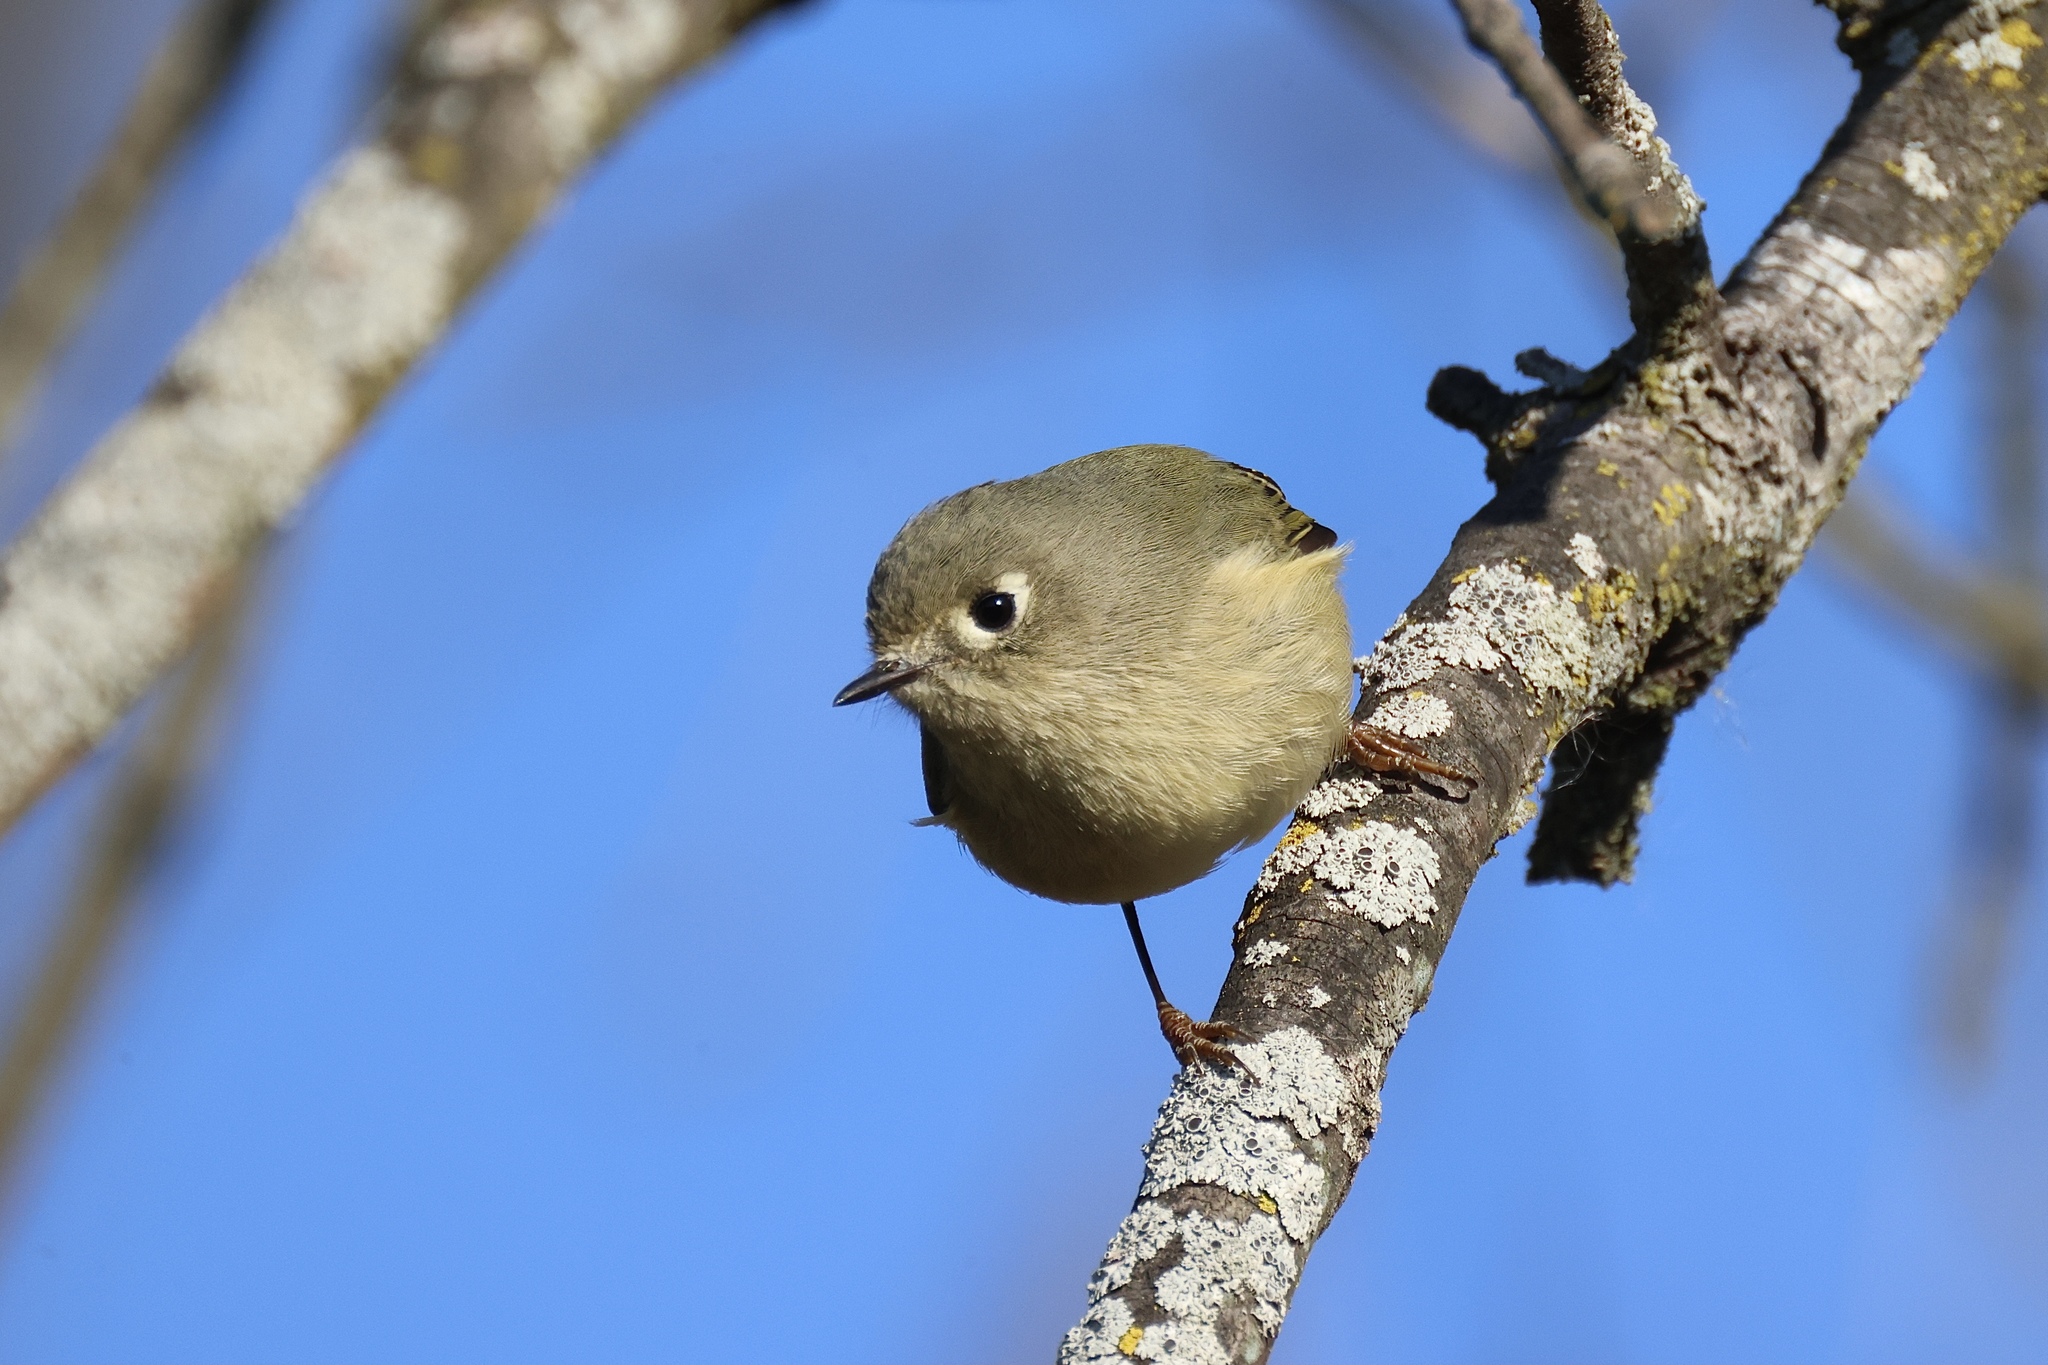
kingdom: Animalia
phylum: Chordata
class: Aves
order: Passeriformes
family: Regulidae
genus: Regulus
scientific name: Regulus calendula
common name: Ruby-crowned kinglet
